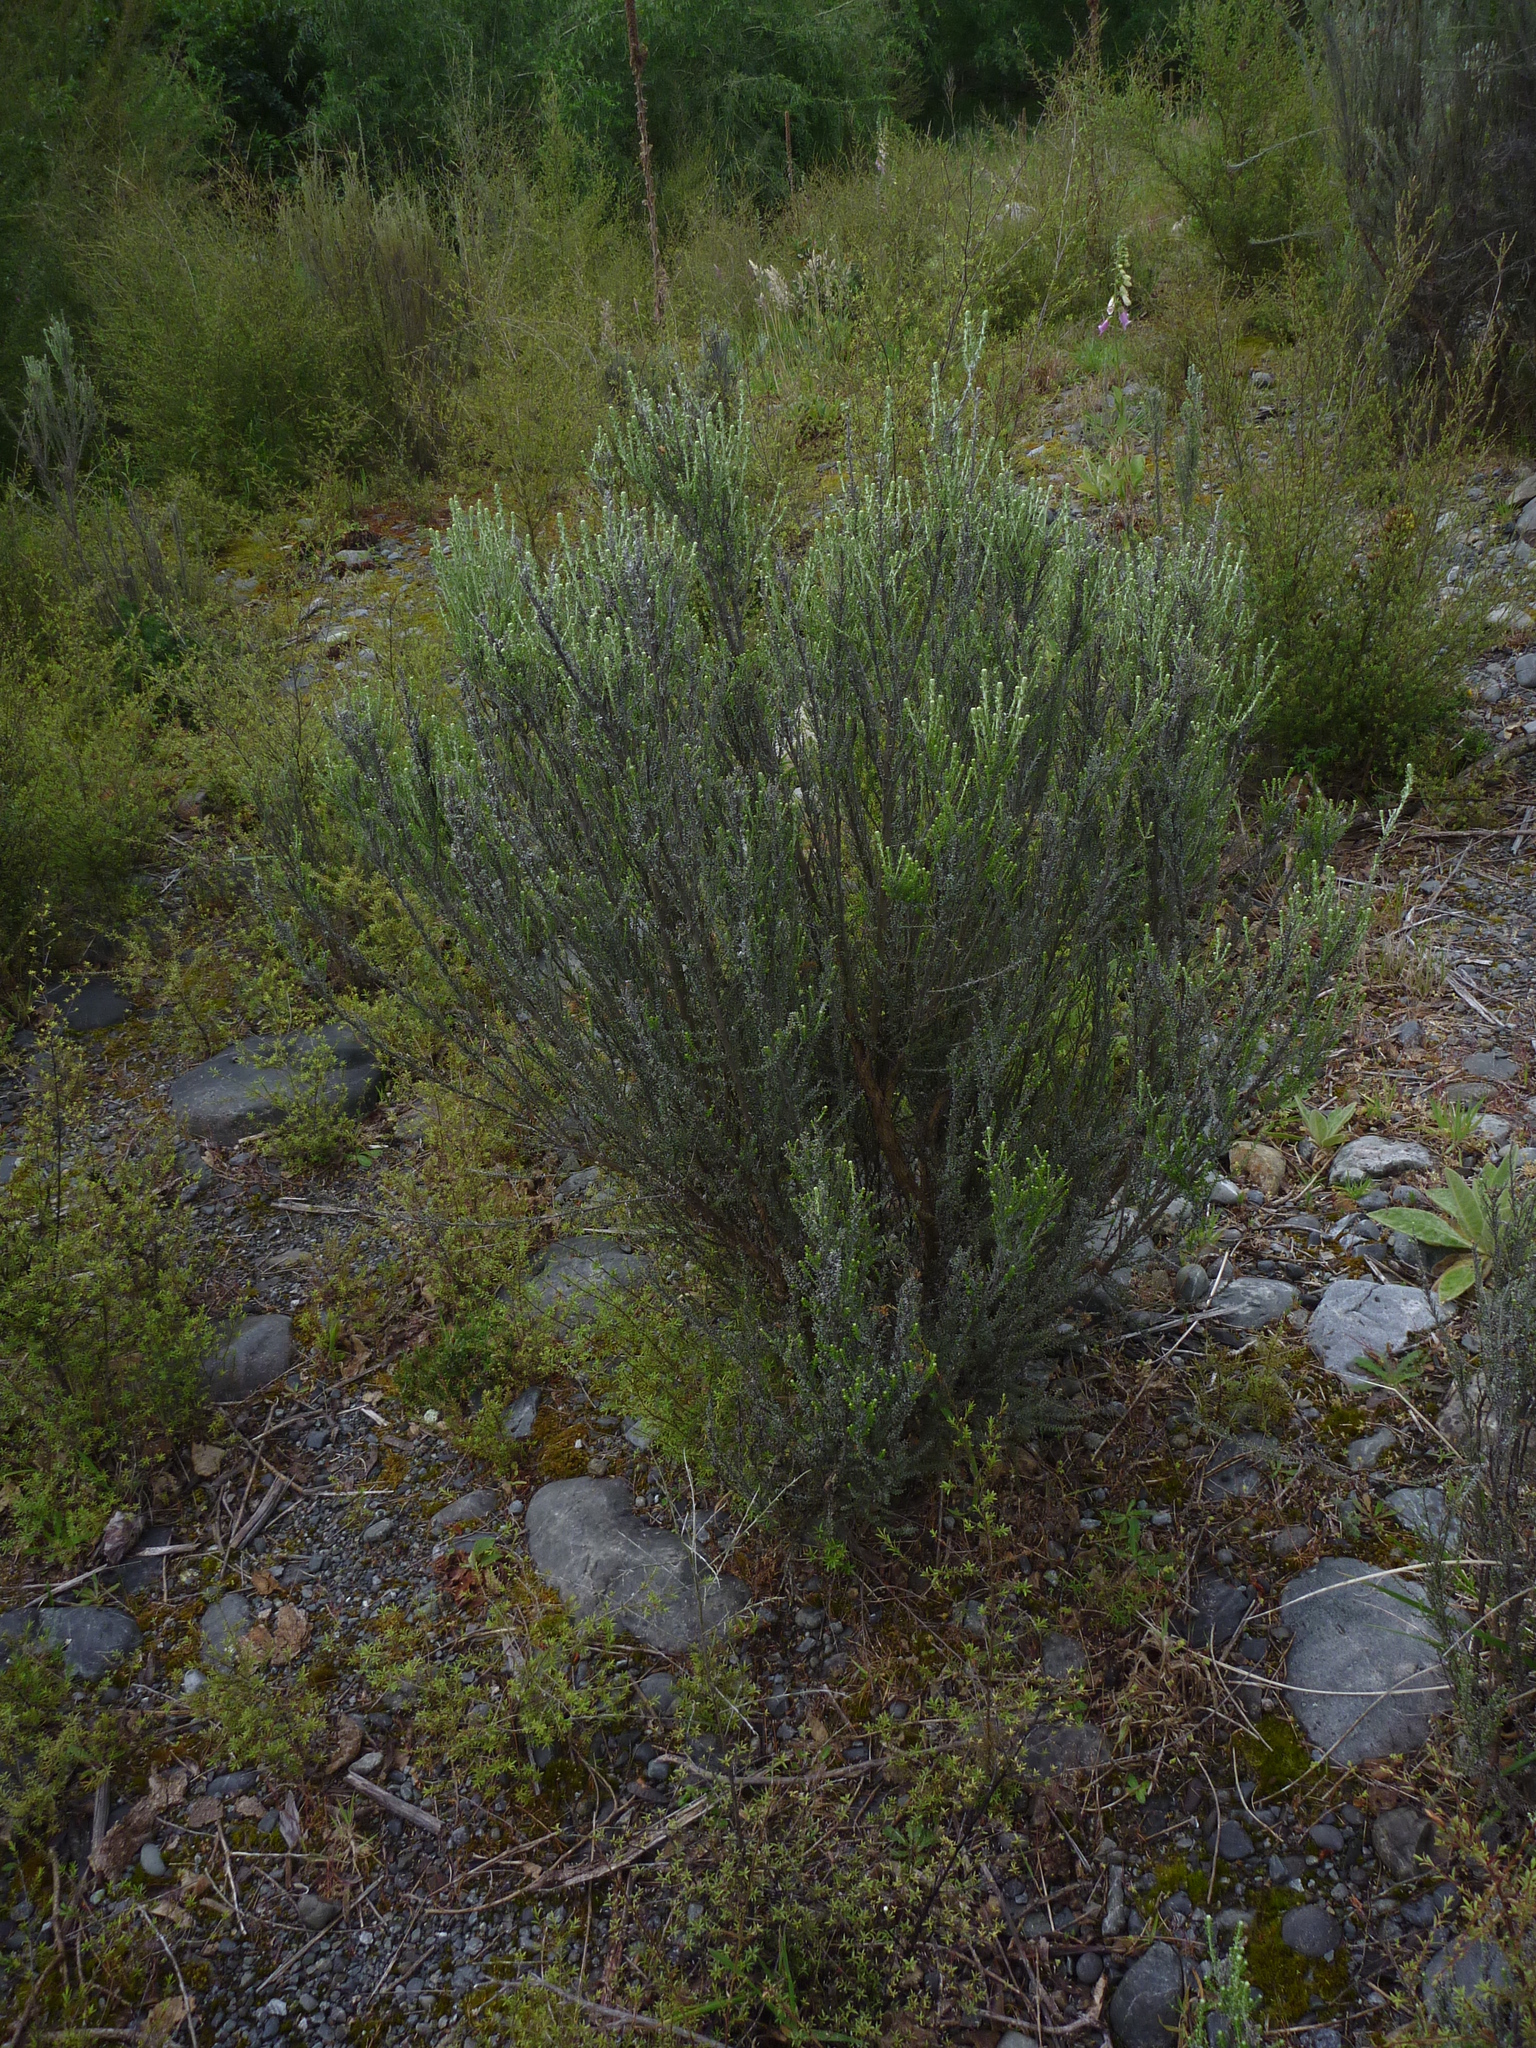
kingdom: Plantae
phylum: Tracheophyta
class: Magnoliopsida
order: Asterales
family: Asteraceae
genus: Ozothamnus
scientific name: Ozothamnus leptophyllus
